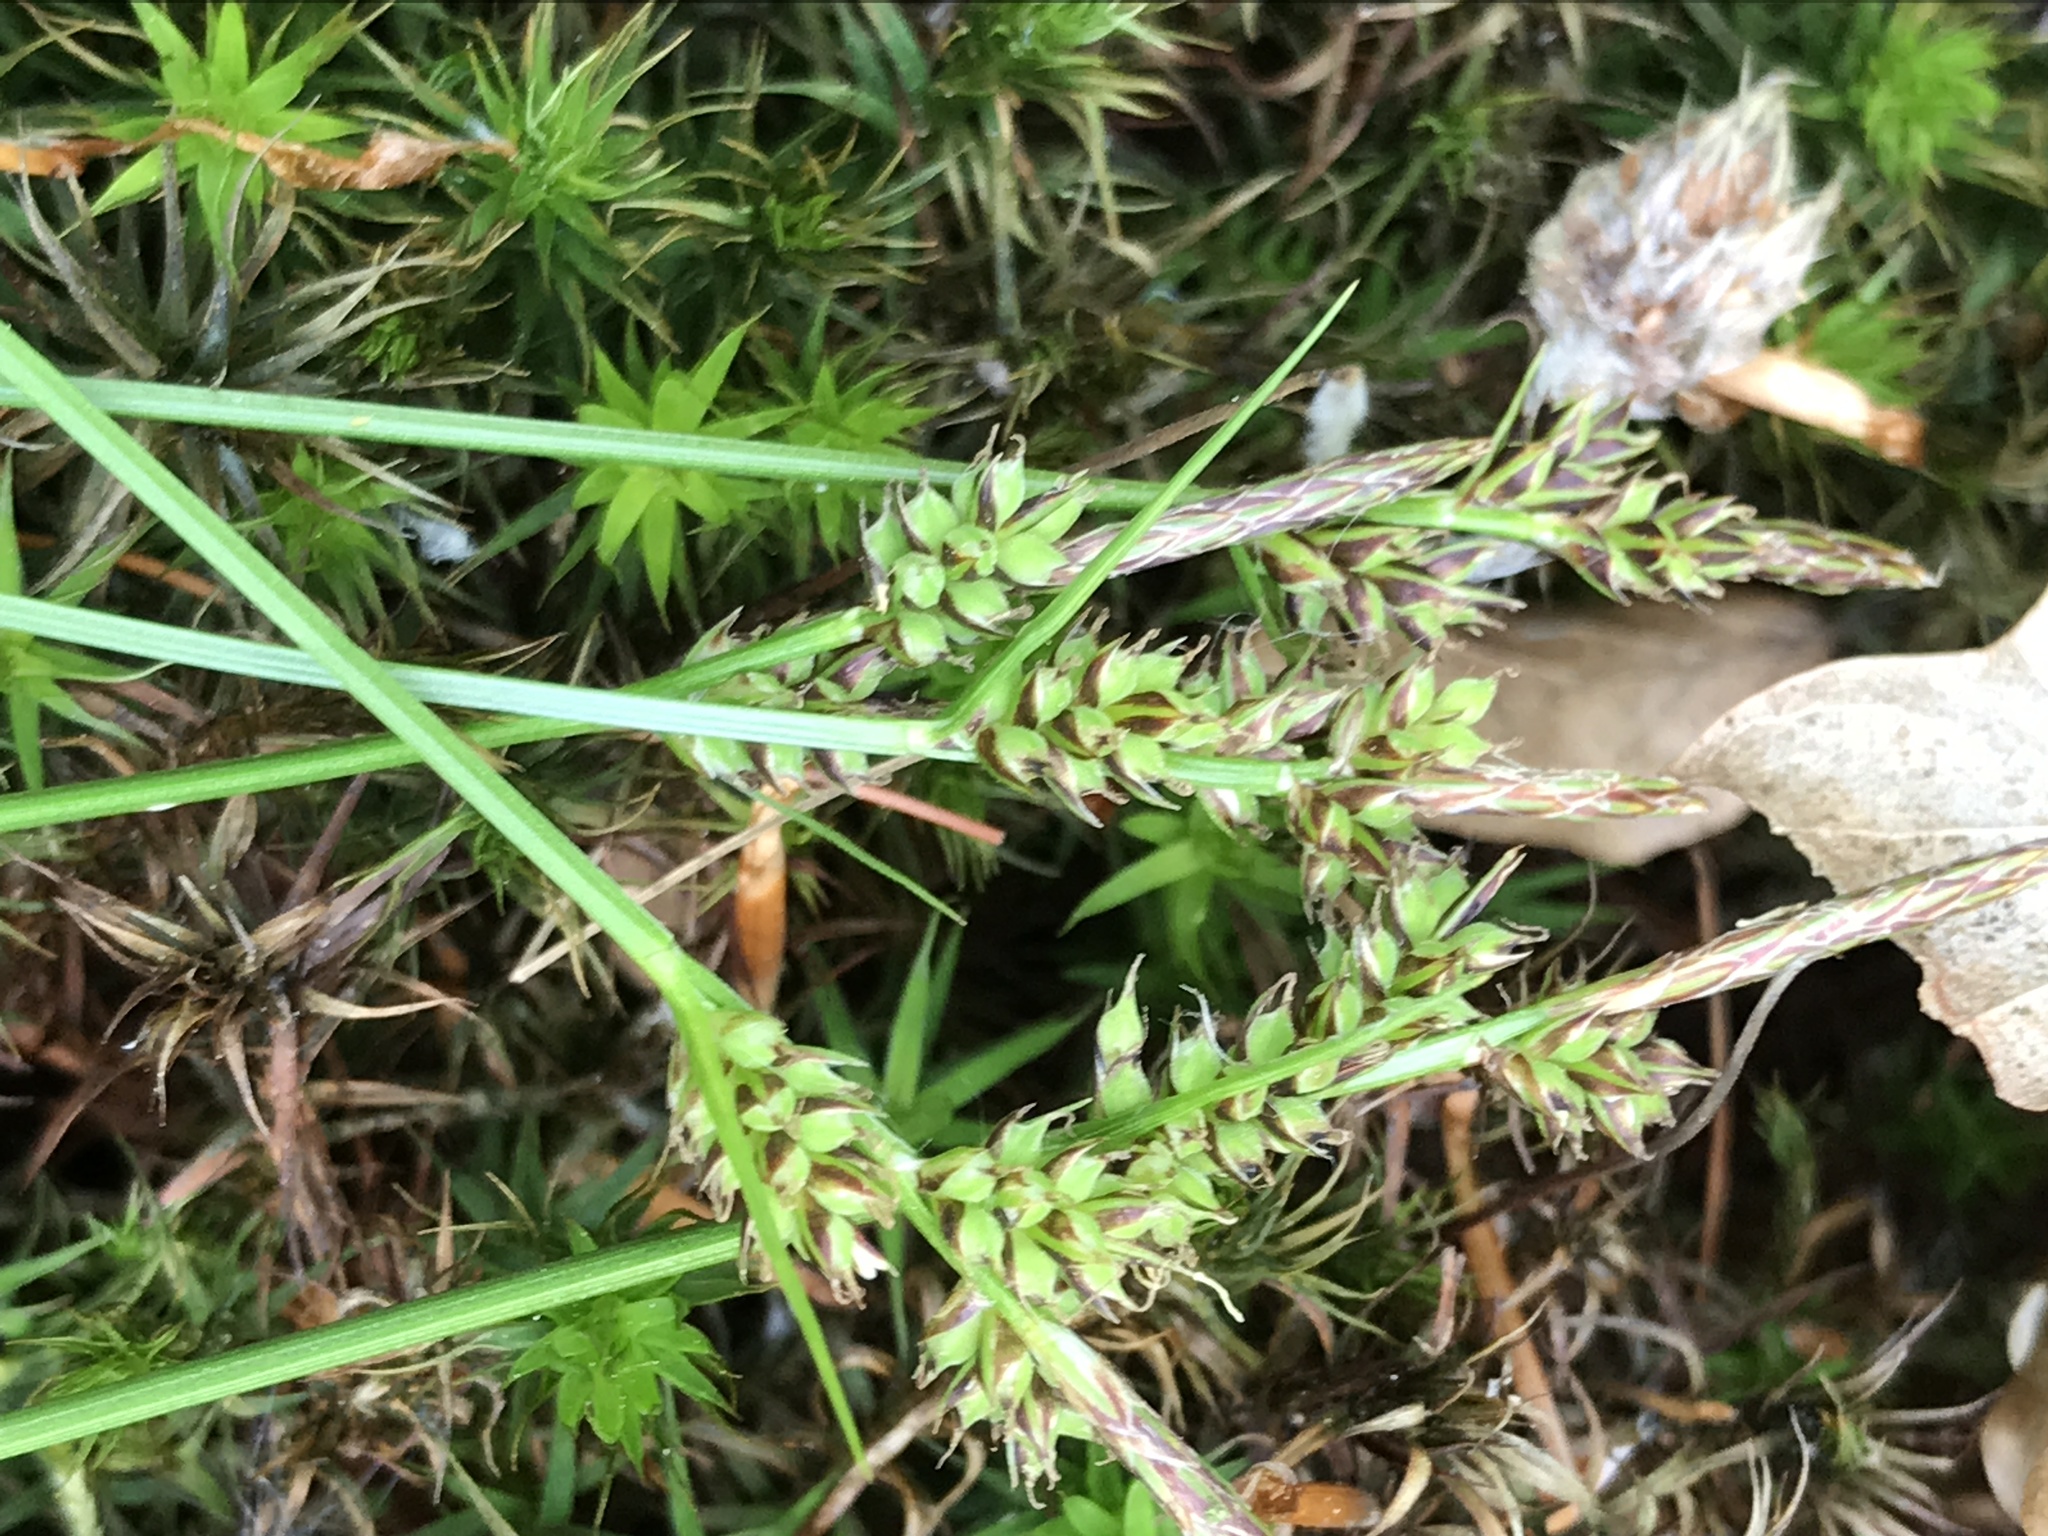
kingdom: Plantae
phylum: Tracheophyta
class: Liliopsida
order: Poales
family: Cyperaceae
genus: Carex
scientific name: Carex pilulifera
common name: Pill sedge
